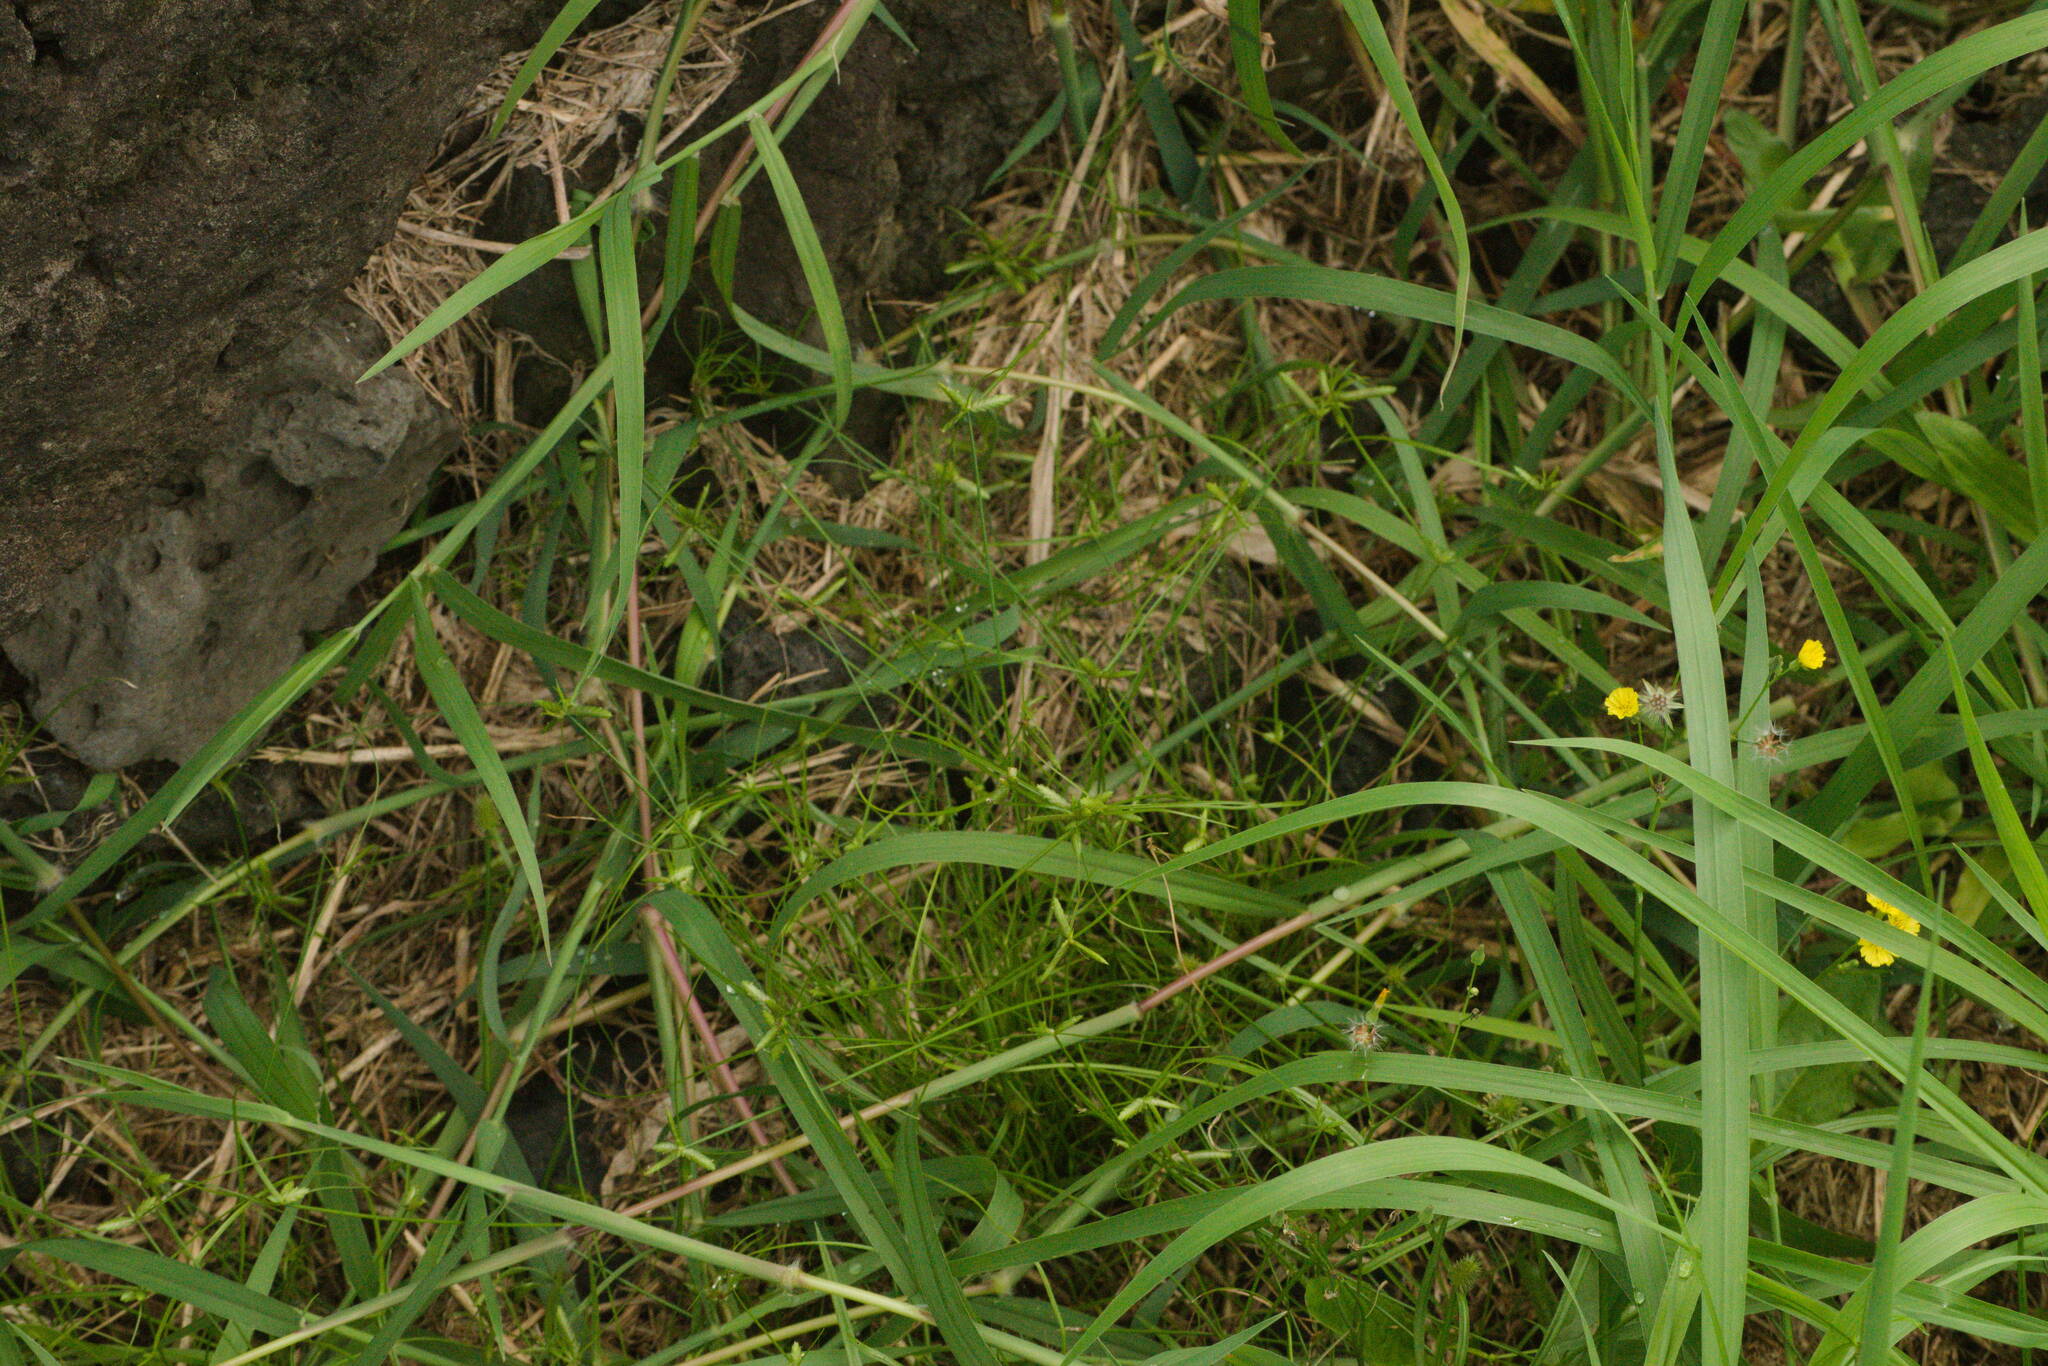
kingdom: Plantae
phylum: Tracheophyta
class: Liliopsida
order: Poales
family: Cyperaceae
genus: Cyperus
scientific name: Cyperus gracilis
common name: Slimjim flatsedge
